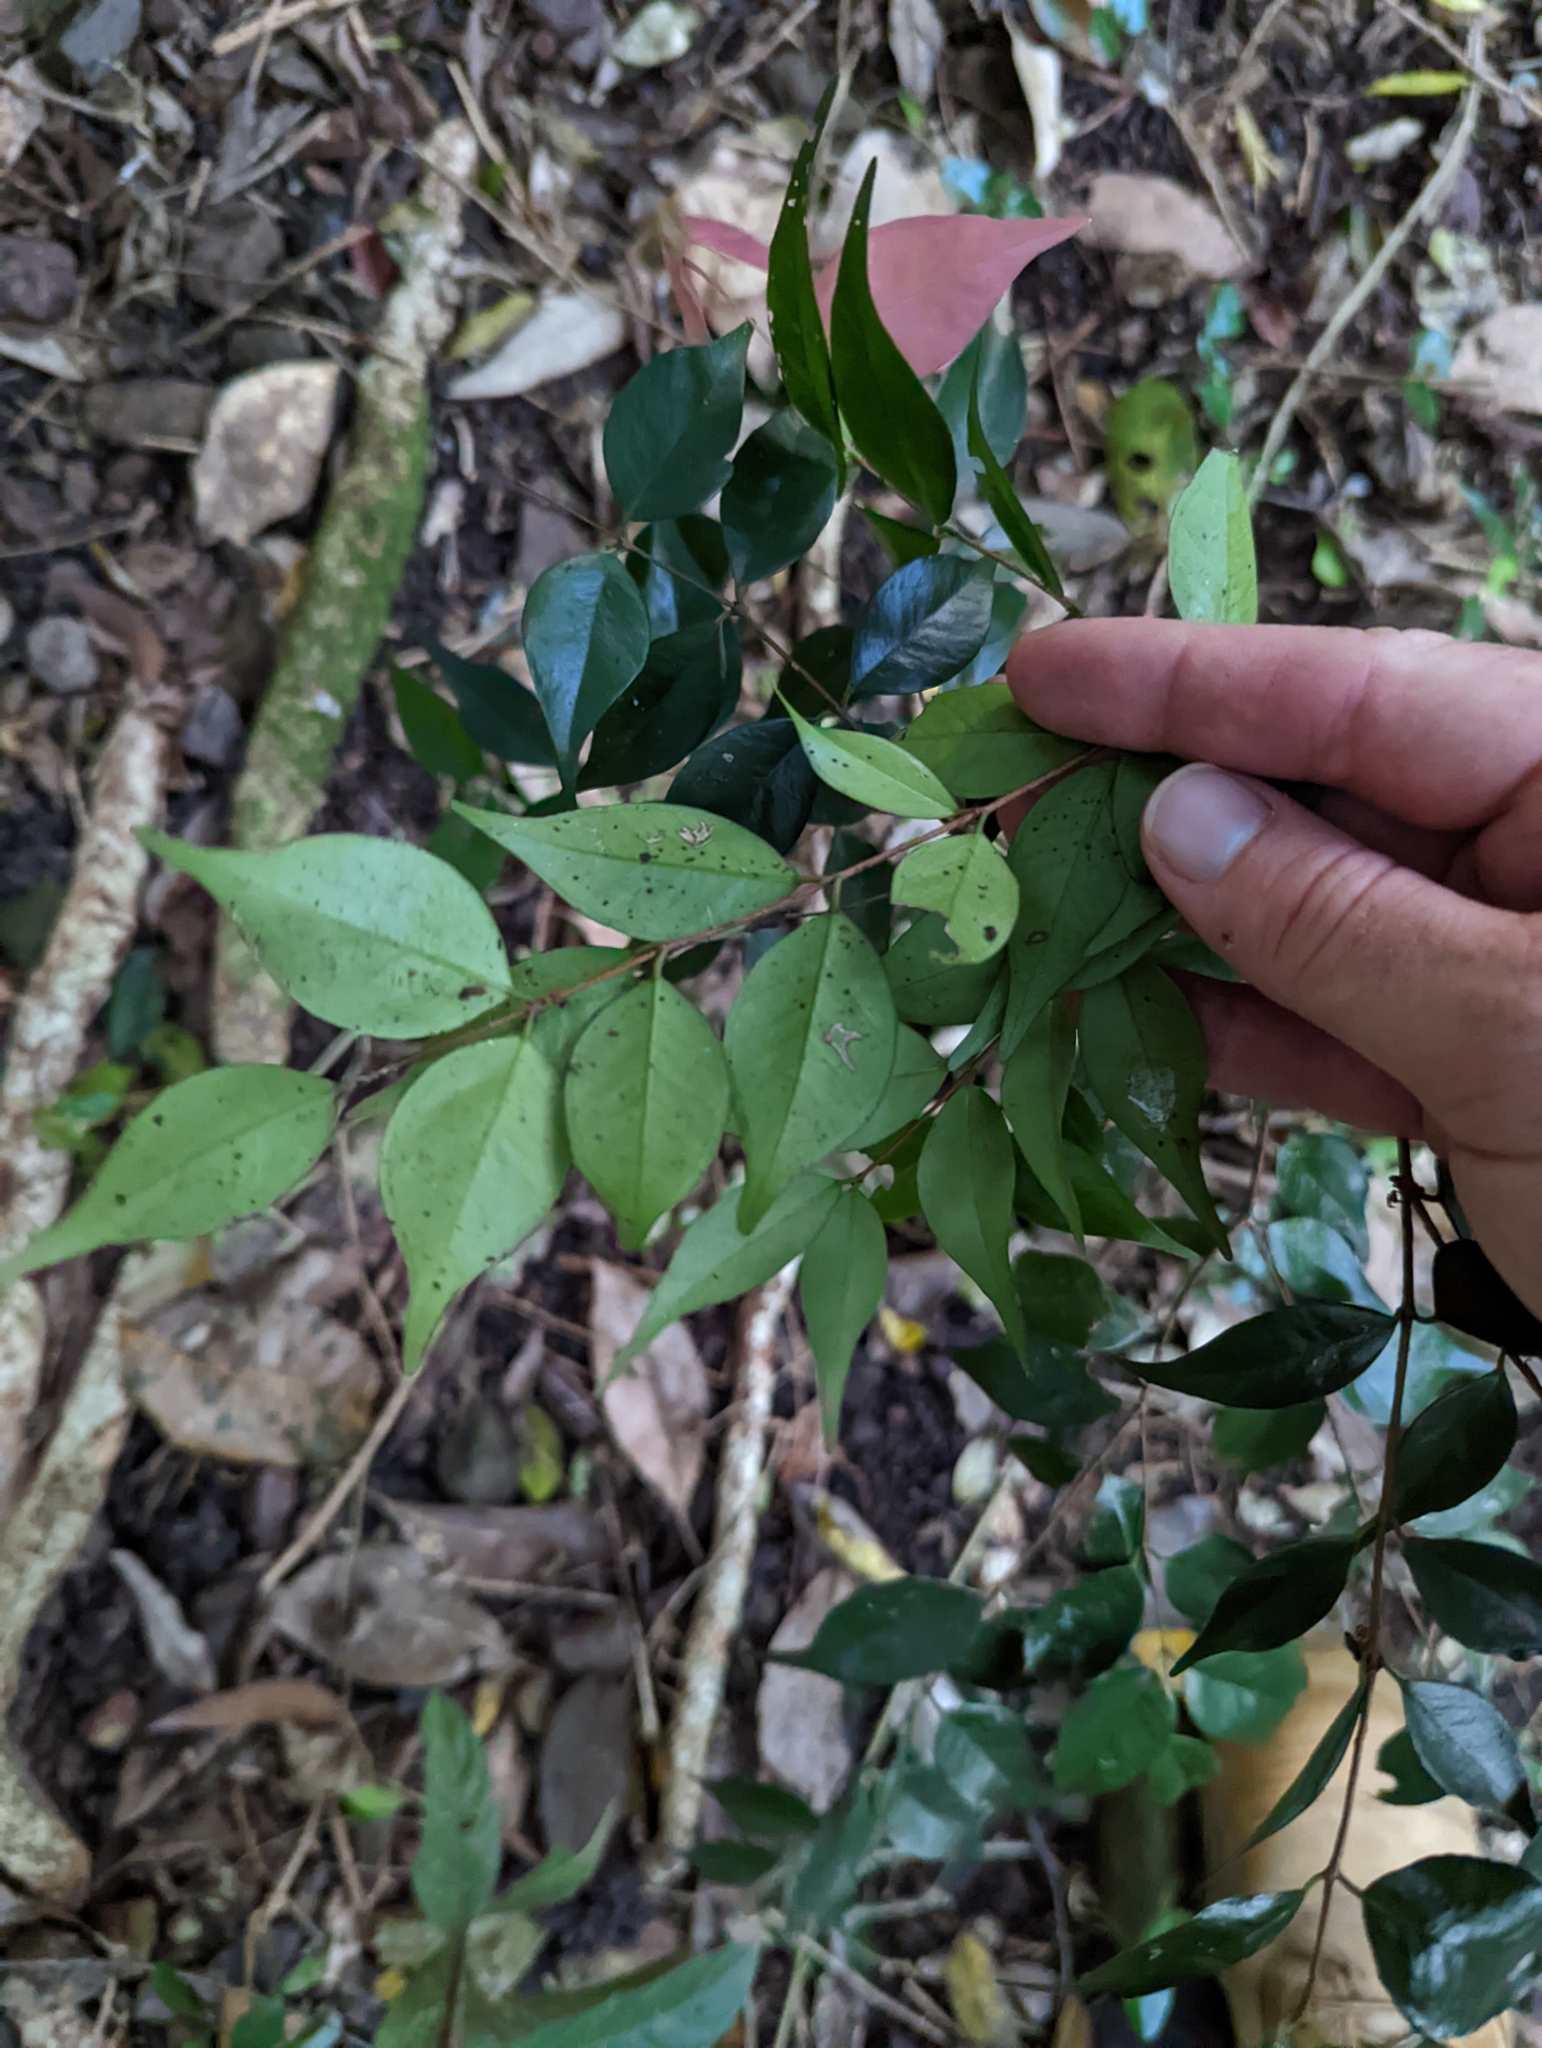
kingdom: Plantae
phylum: Tracheophyta
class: Magnoliopsida
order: Myrtales
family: Myrtaceae
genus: Syzygium
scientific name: Syzygium luehmannii
